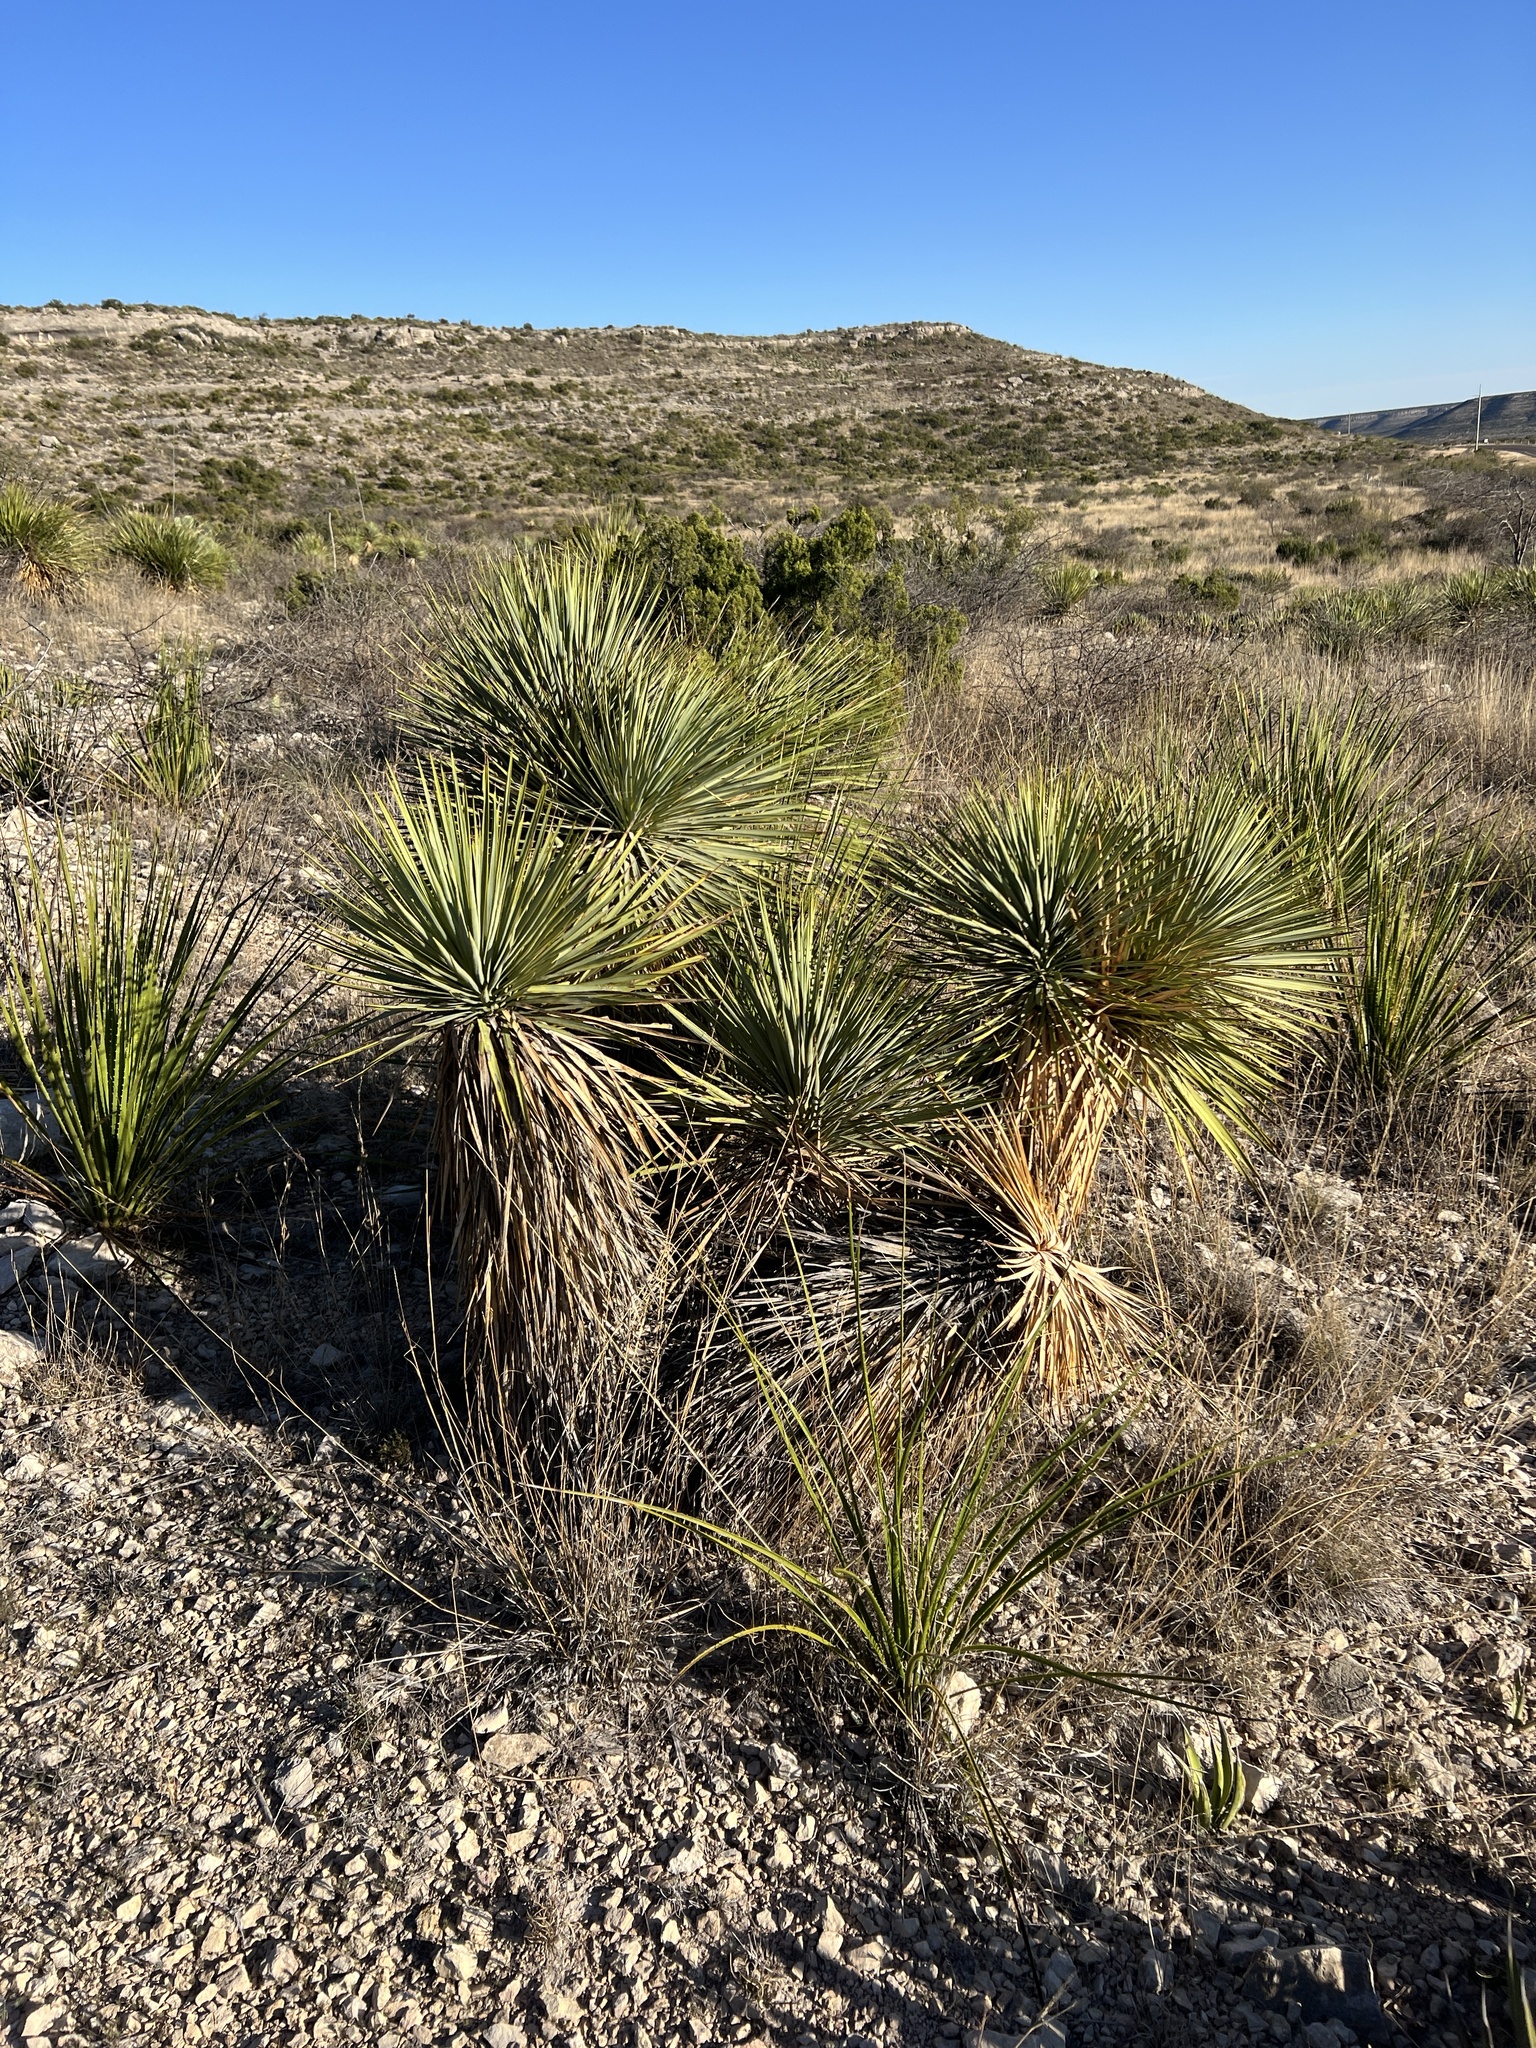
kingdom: Plantae
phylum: Tracheophyta
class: Liliopsida
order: Asparagales
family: Asparagaceae
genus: Yucca
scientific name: Yucca thompsoniana
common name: Trans-pecos yucca
